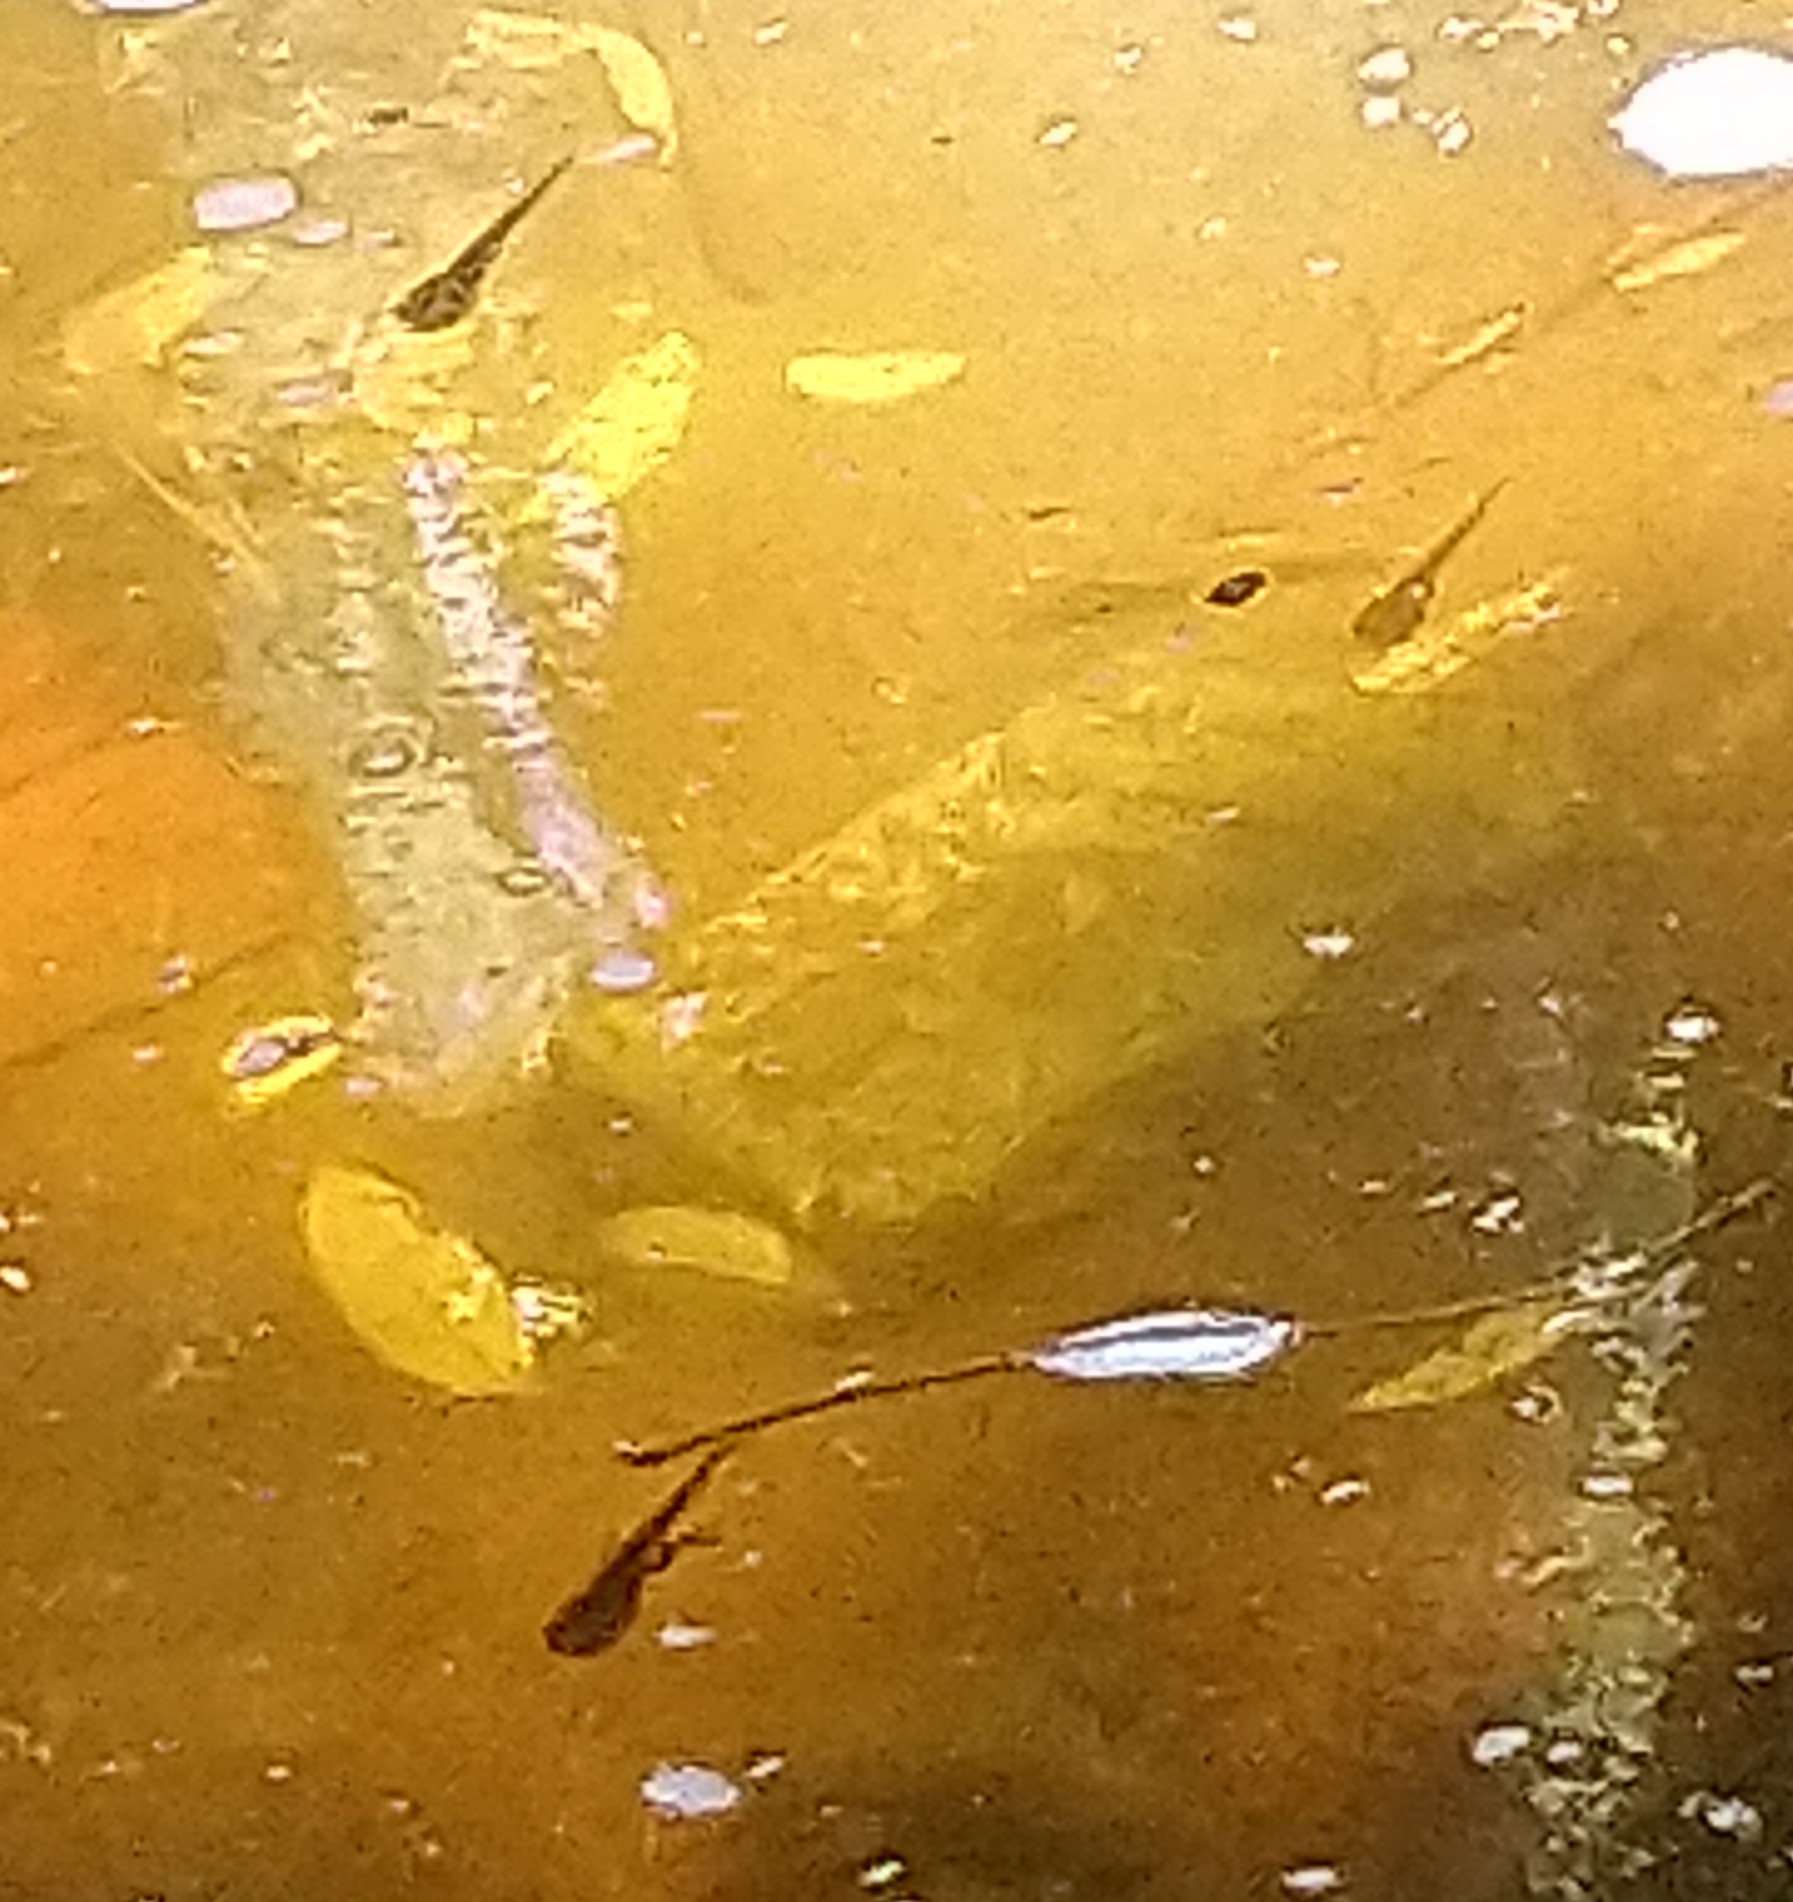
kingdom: Animalia
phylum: Chordata
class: Amphibia
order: Anura
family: Pipidae
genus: Xenopus
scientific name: Xenopus laevis
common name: African clawed frog
